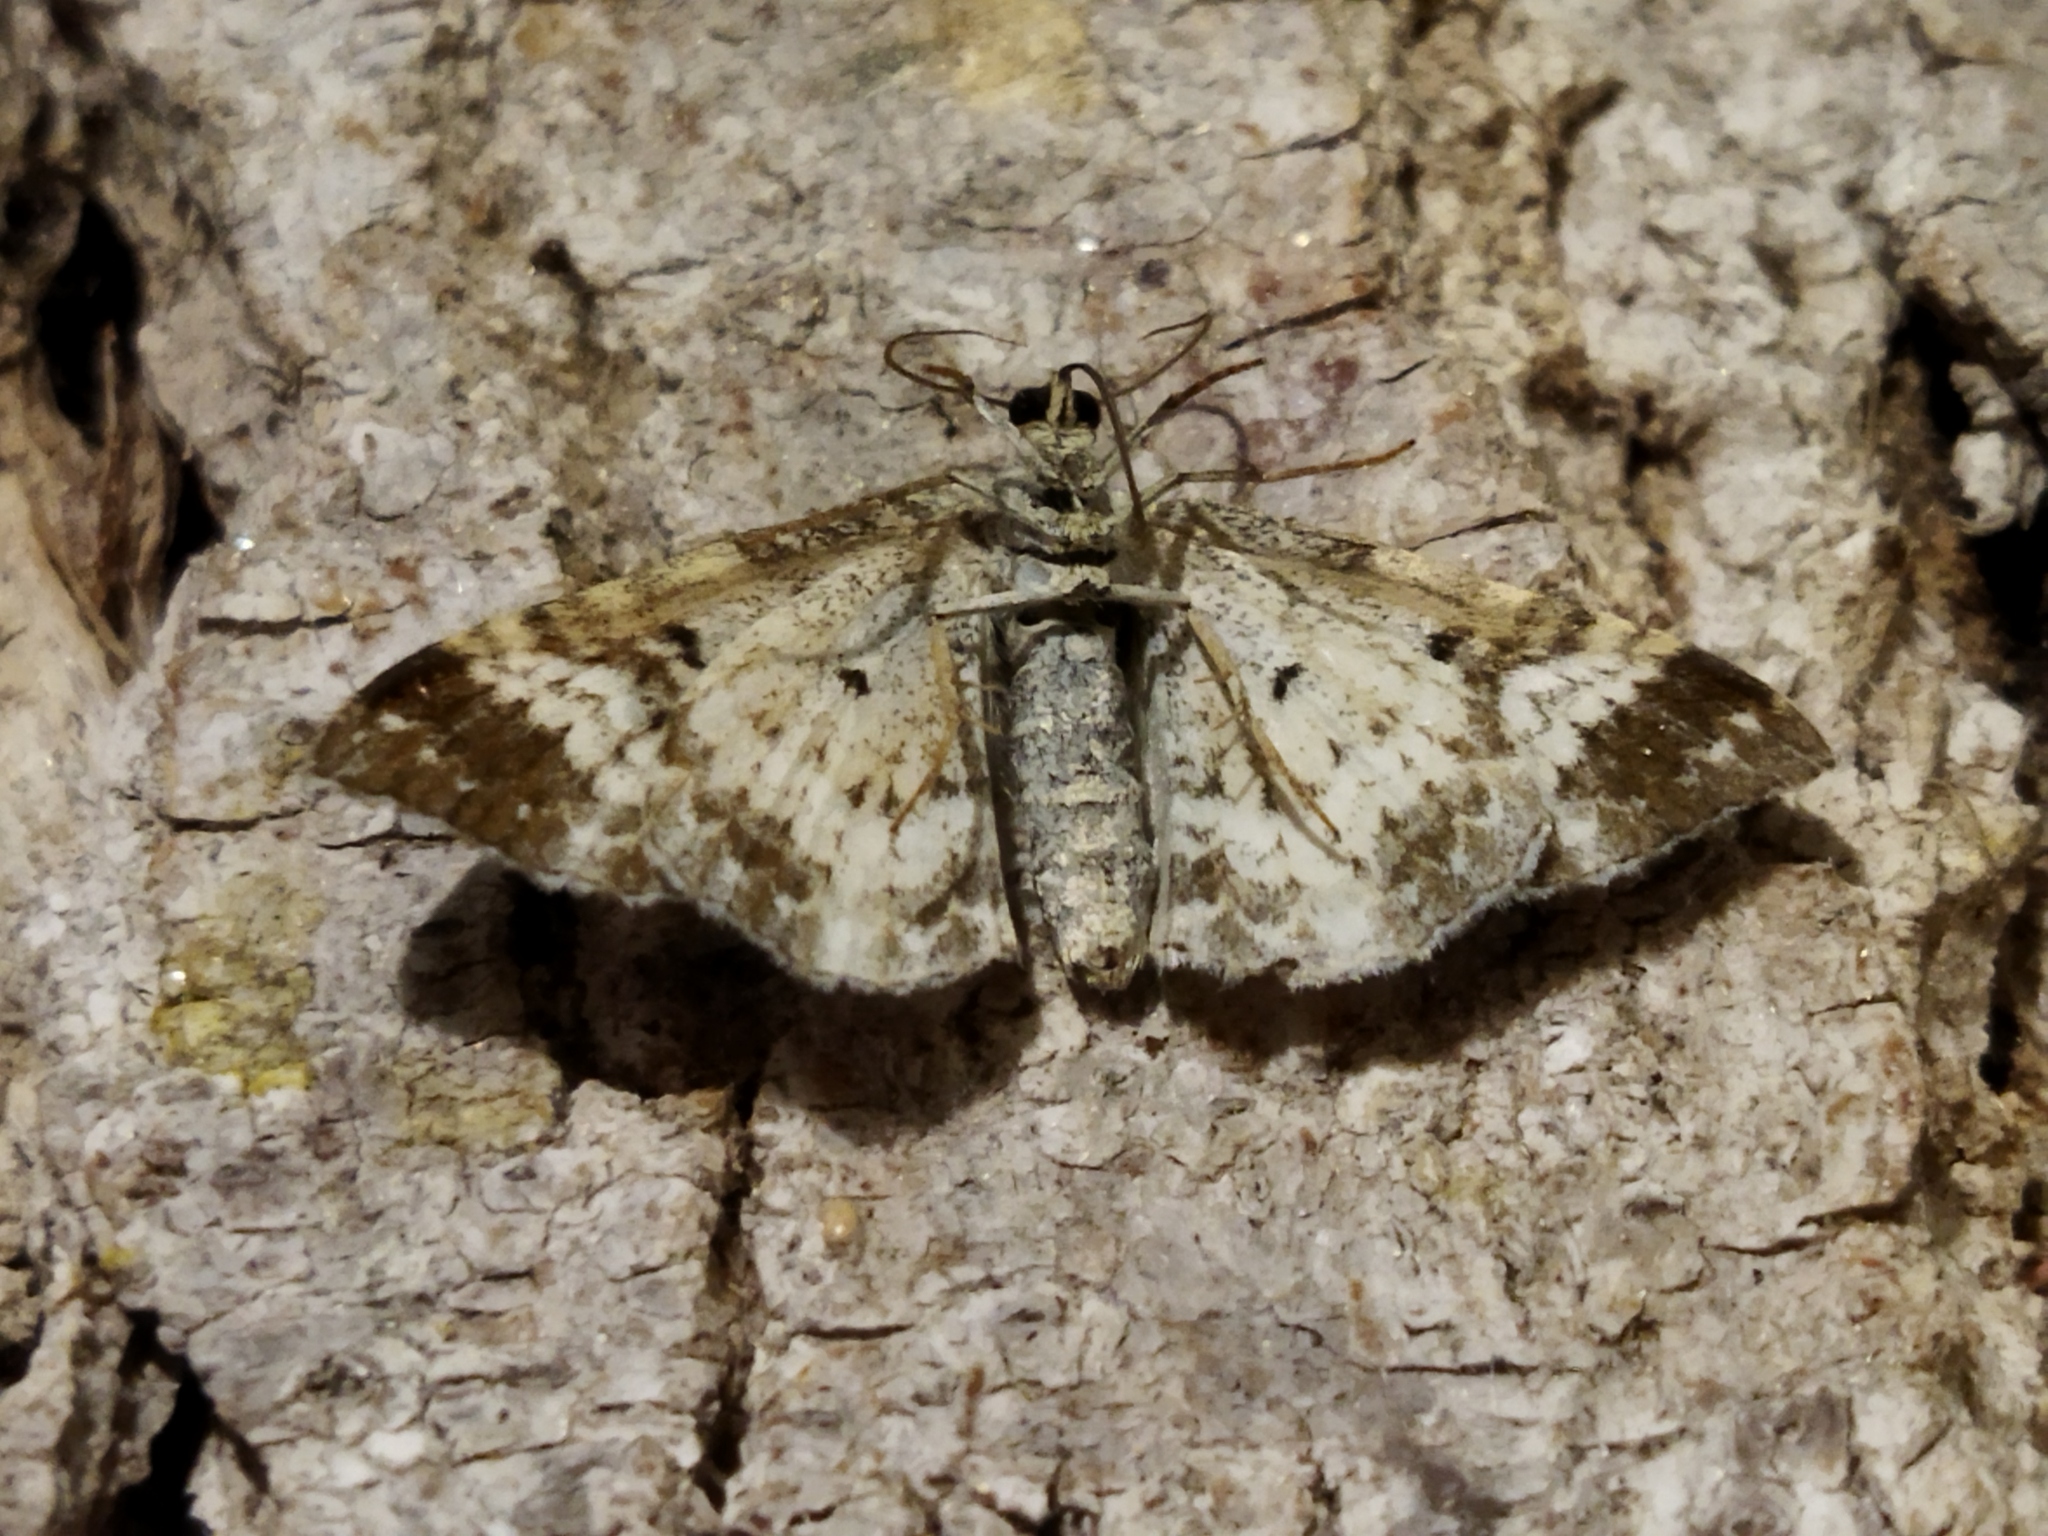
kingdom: Animalia
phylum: Arthropoda
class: Insecta
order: Lepidoptera
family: Geometridae
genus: Epirrhoe
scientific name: Epirrhoe alternata
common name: Common carpet
